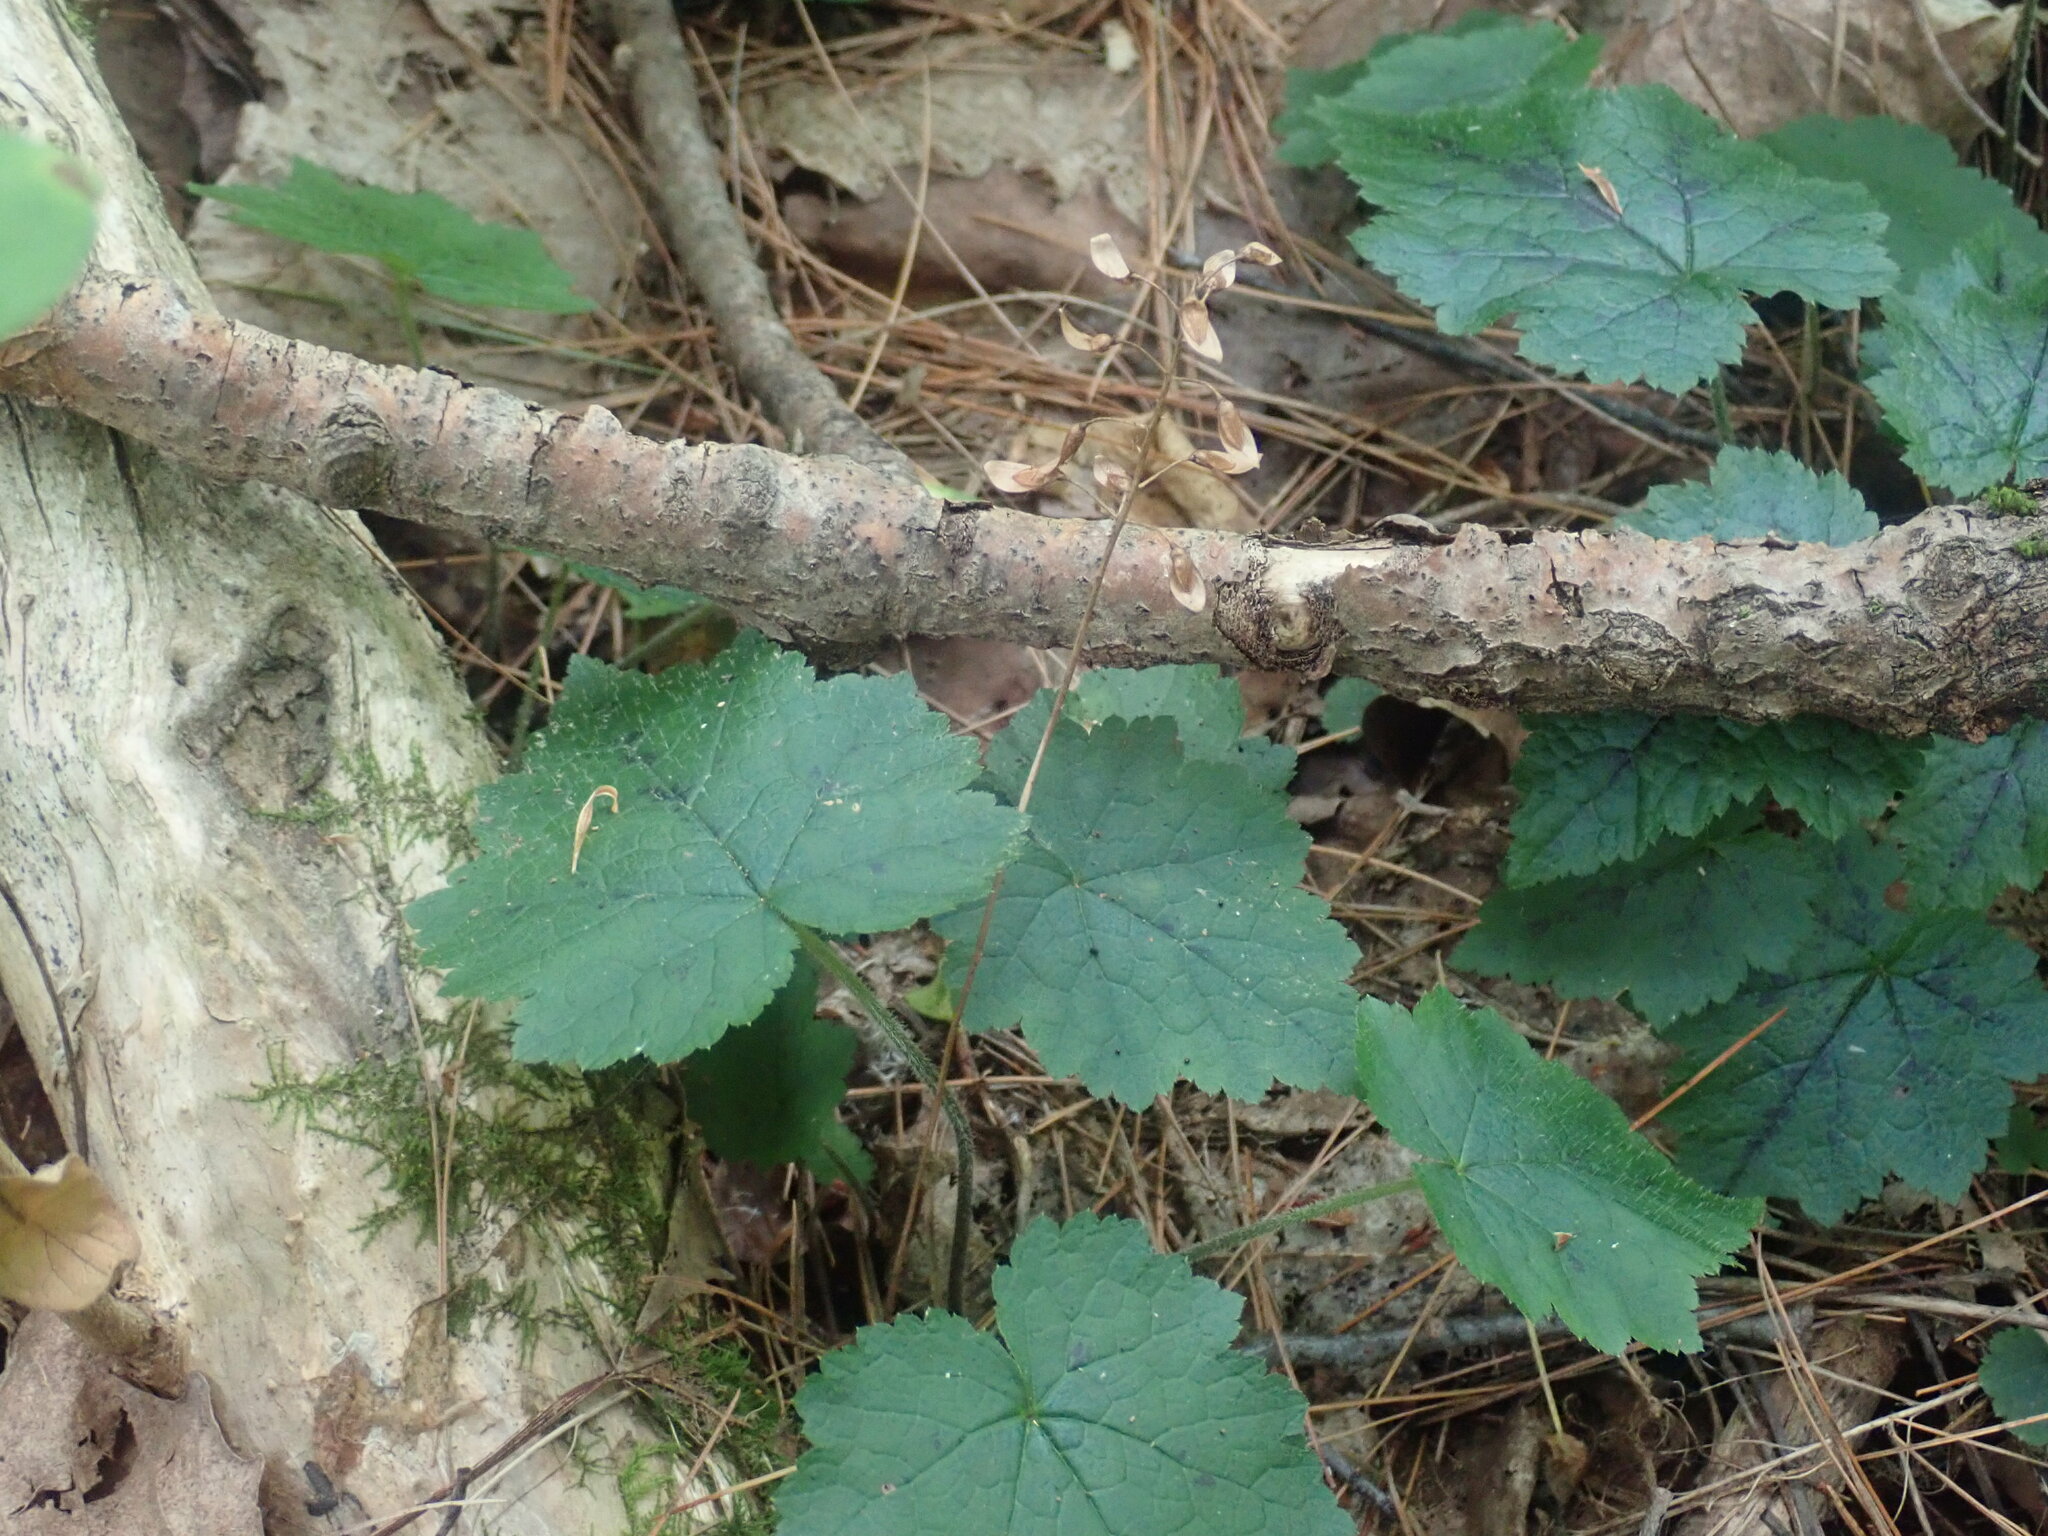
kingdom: Plantae
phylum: Tracheophyta
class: Magnoliopsida
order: Saxifragales
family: Saxifragaceae
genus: Tiarella
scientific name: Tiarella stolonifera
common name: Stoloniferous foamflower
